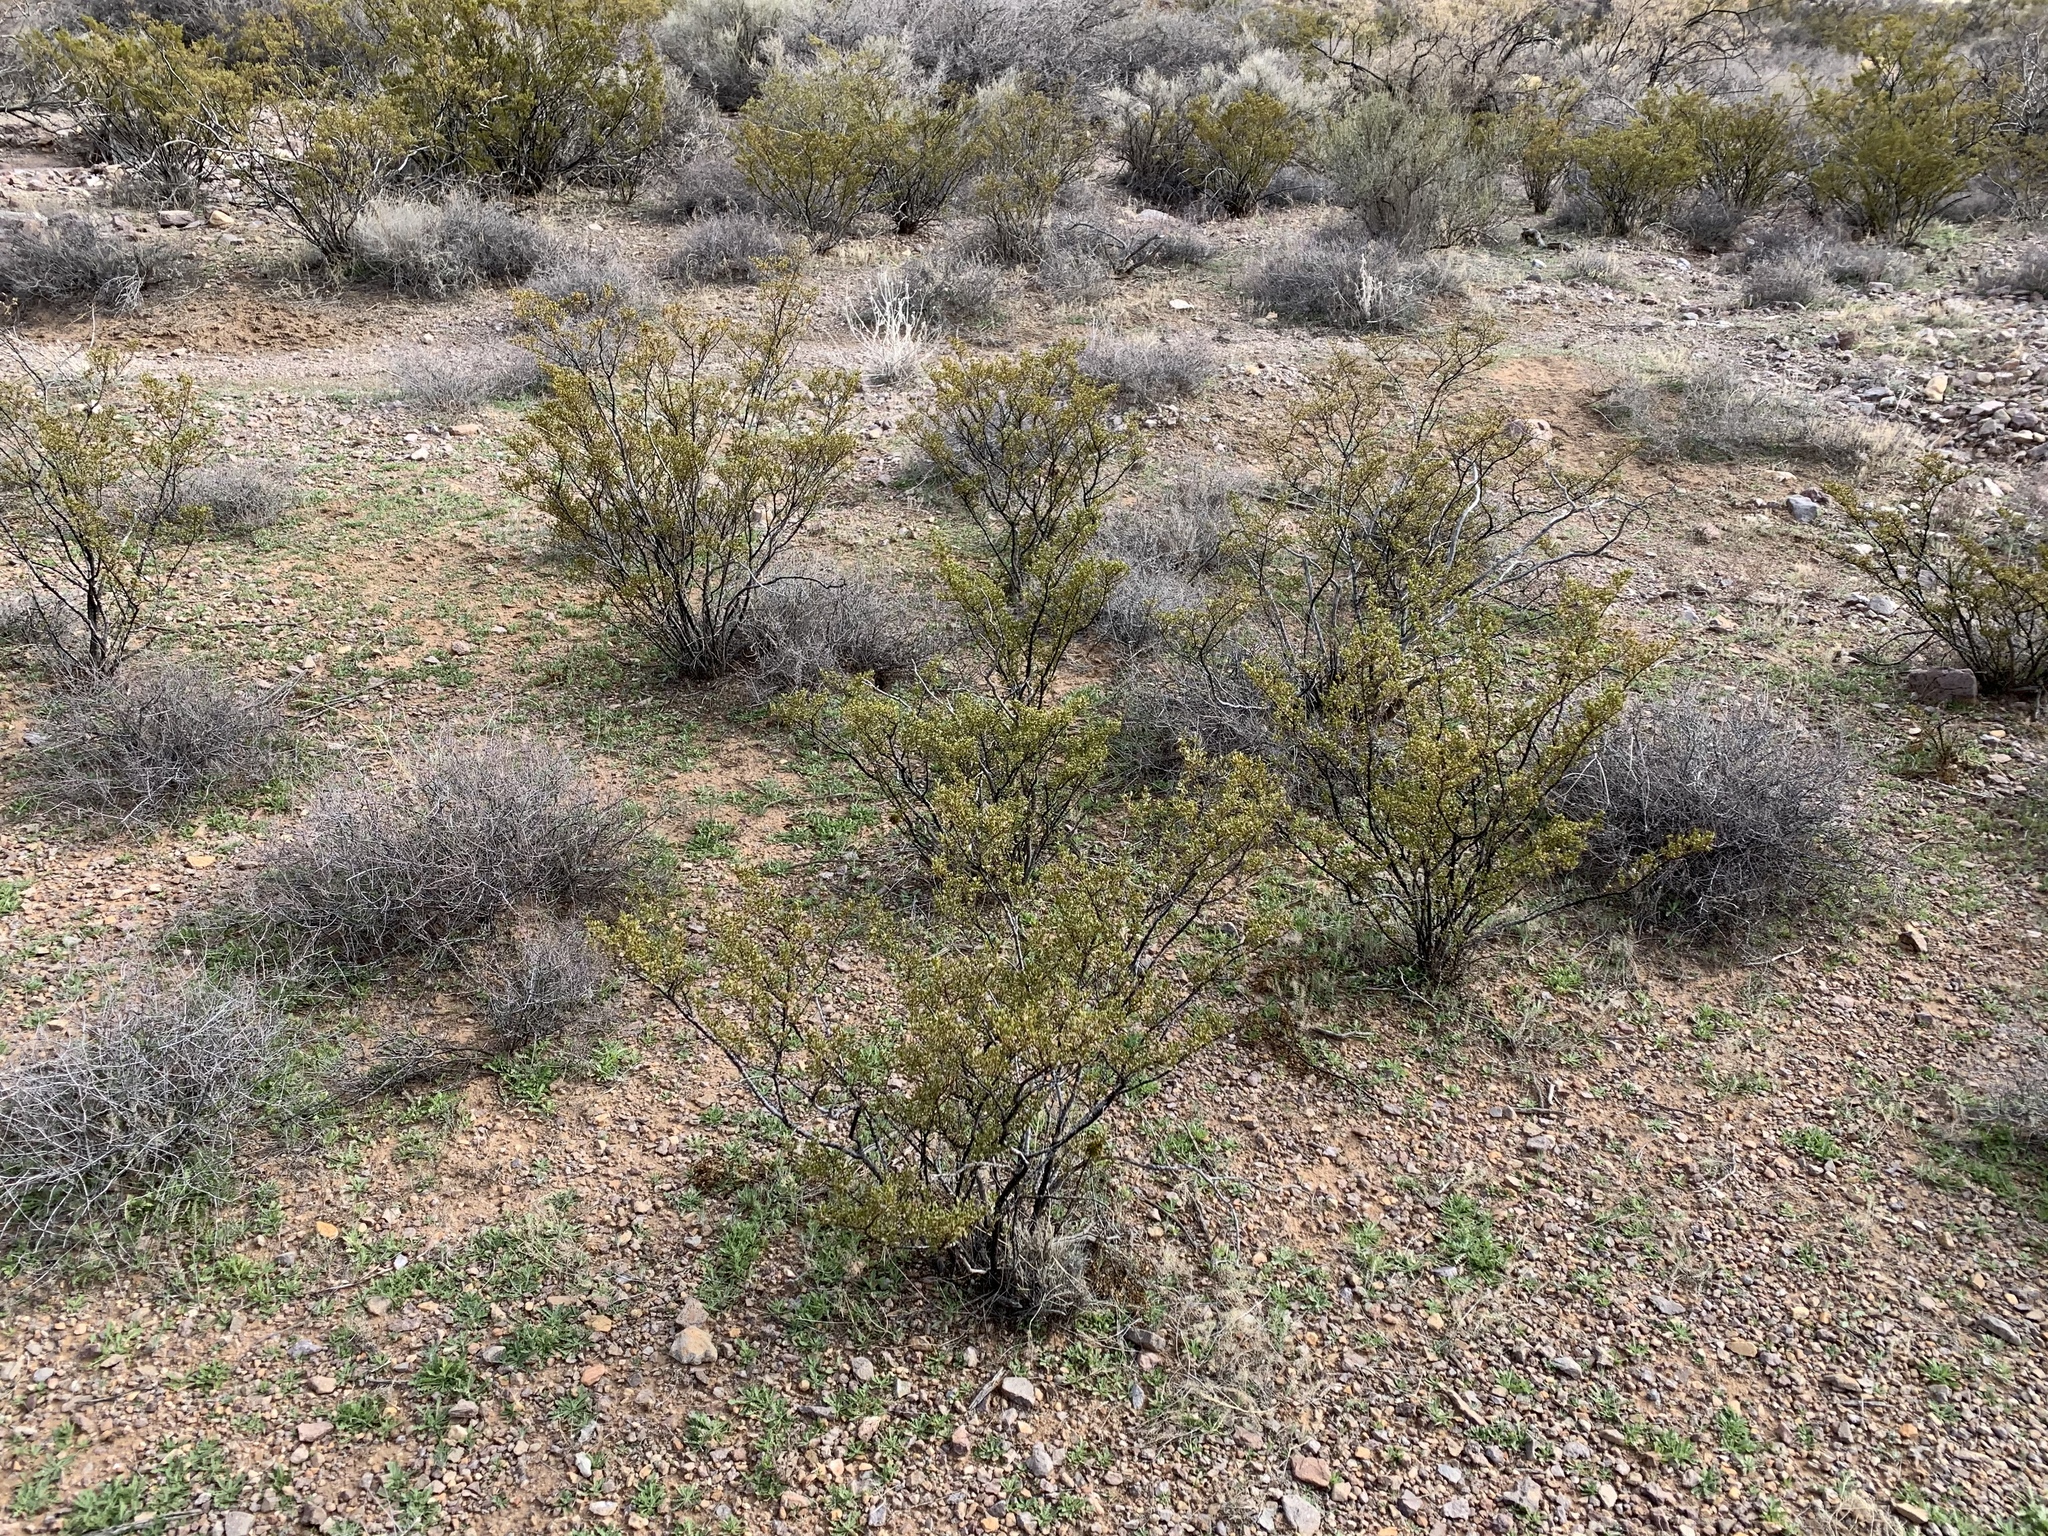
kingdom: Plantae
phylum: Tracheophyta
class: Magnoliopsida
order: Zygophyllales
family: Zygophyllaceae
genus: Larrea
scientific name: Larrea tridentata
